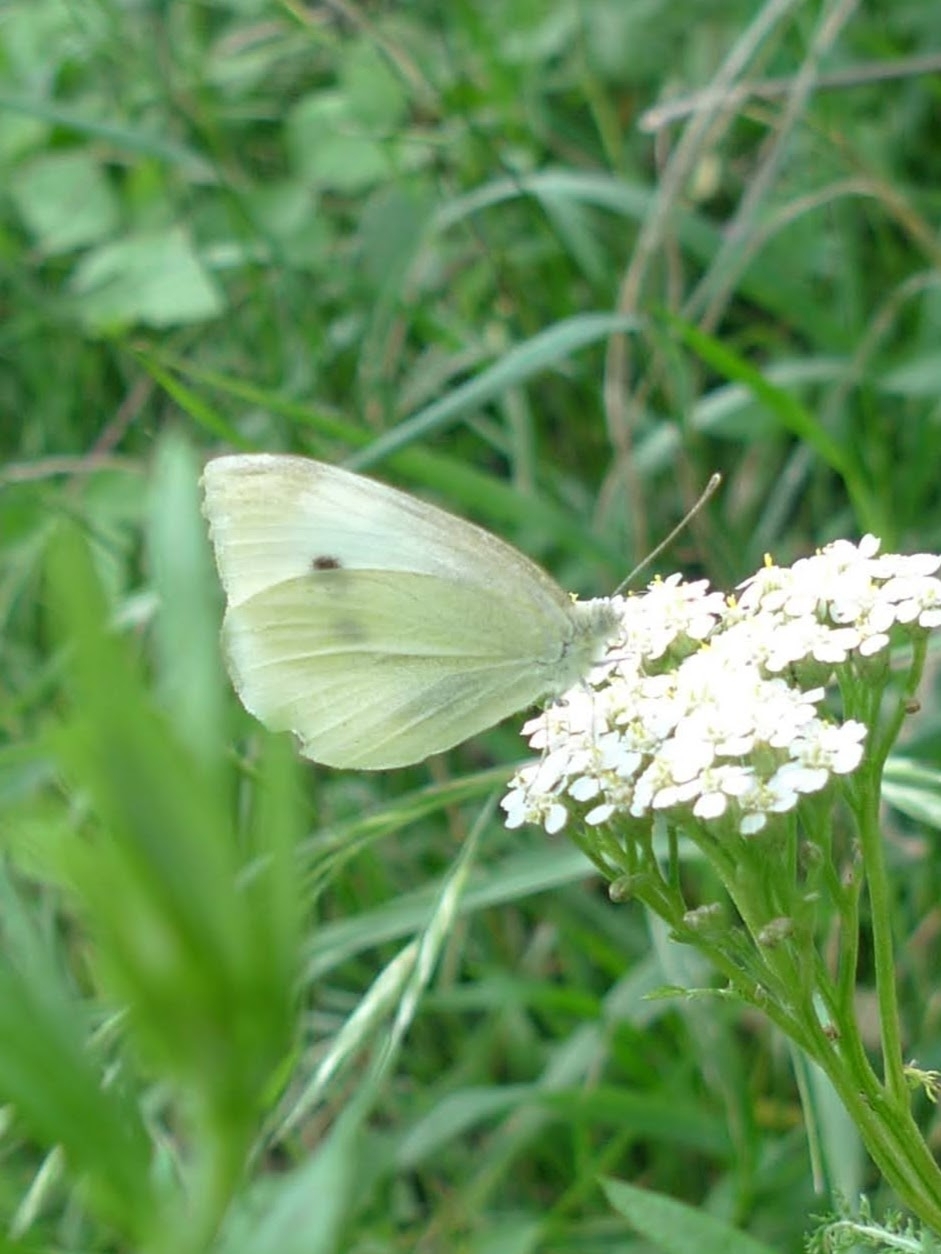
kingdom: Animalia
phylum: Arthropoda
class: Insecta
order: Lepidoptera
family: Pieridae
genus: Pieris
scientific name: Pieris rapae
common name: Small white
